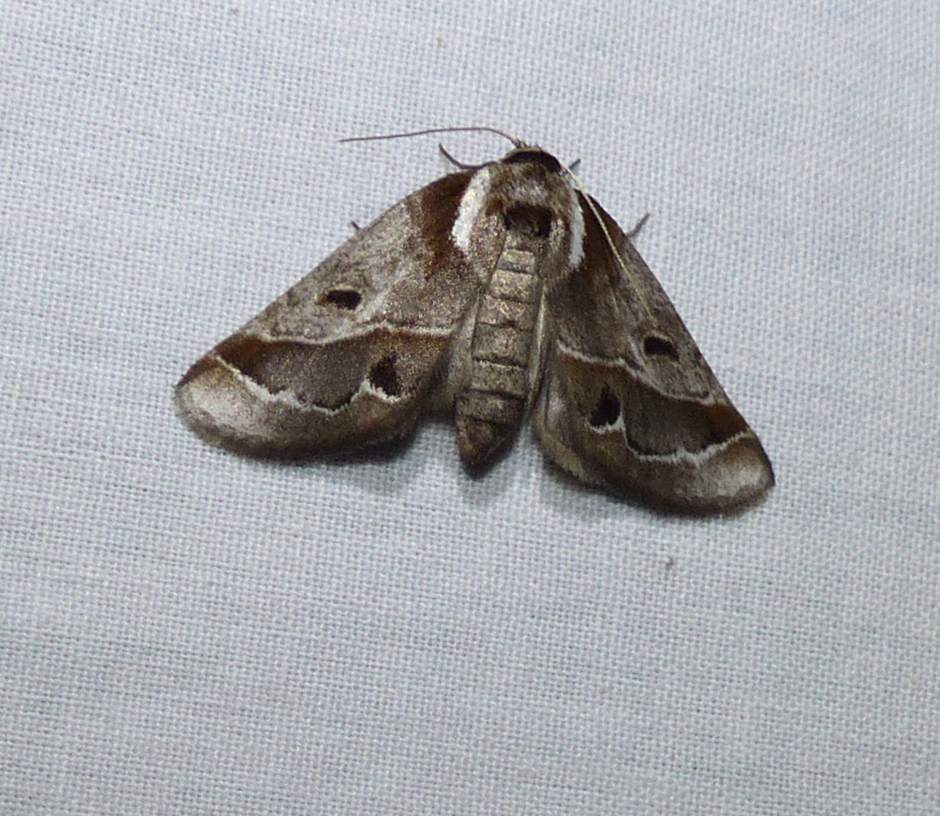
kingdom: Animalia
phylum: Arthropoda
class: Insecta
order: Lepidoptera
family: Nolidae
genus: Baileya
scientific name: Baileya ophthalmica
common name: Eyed baileya moth
